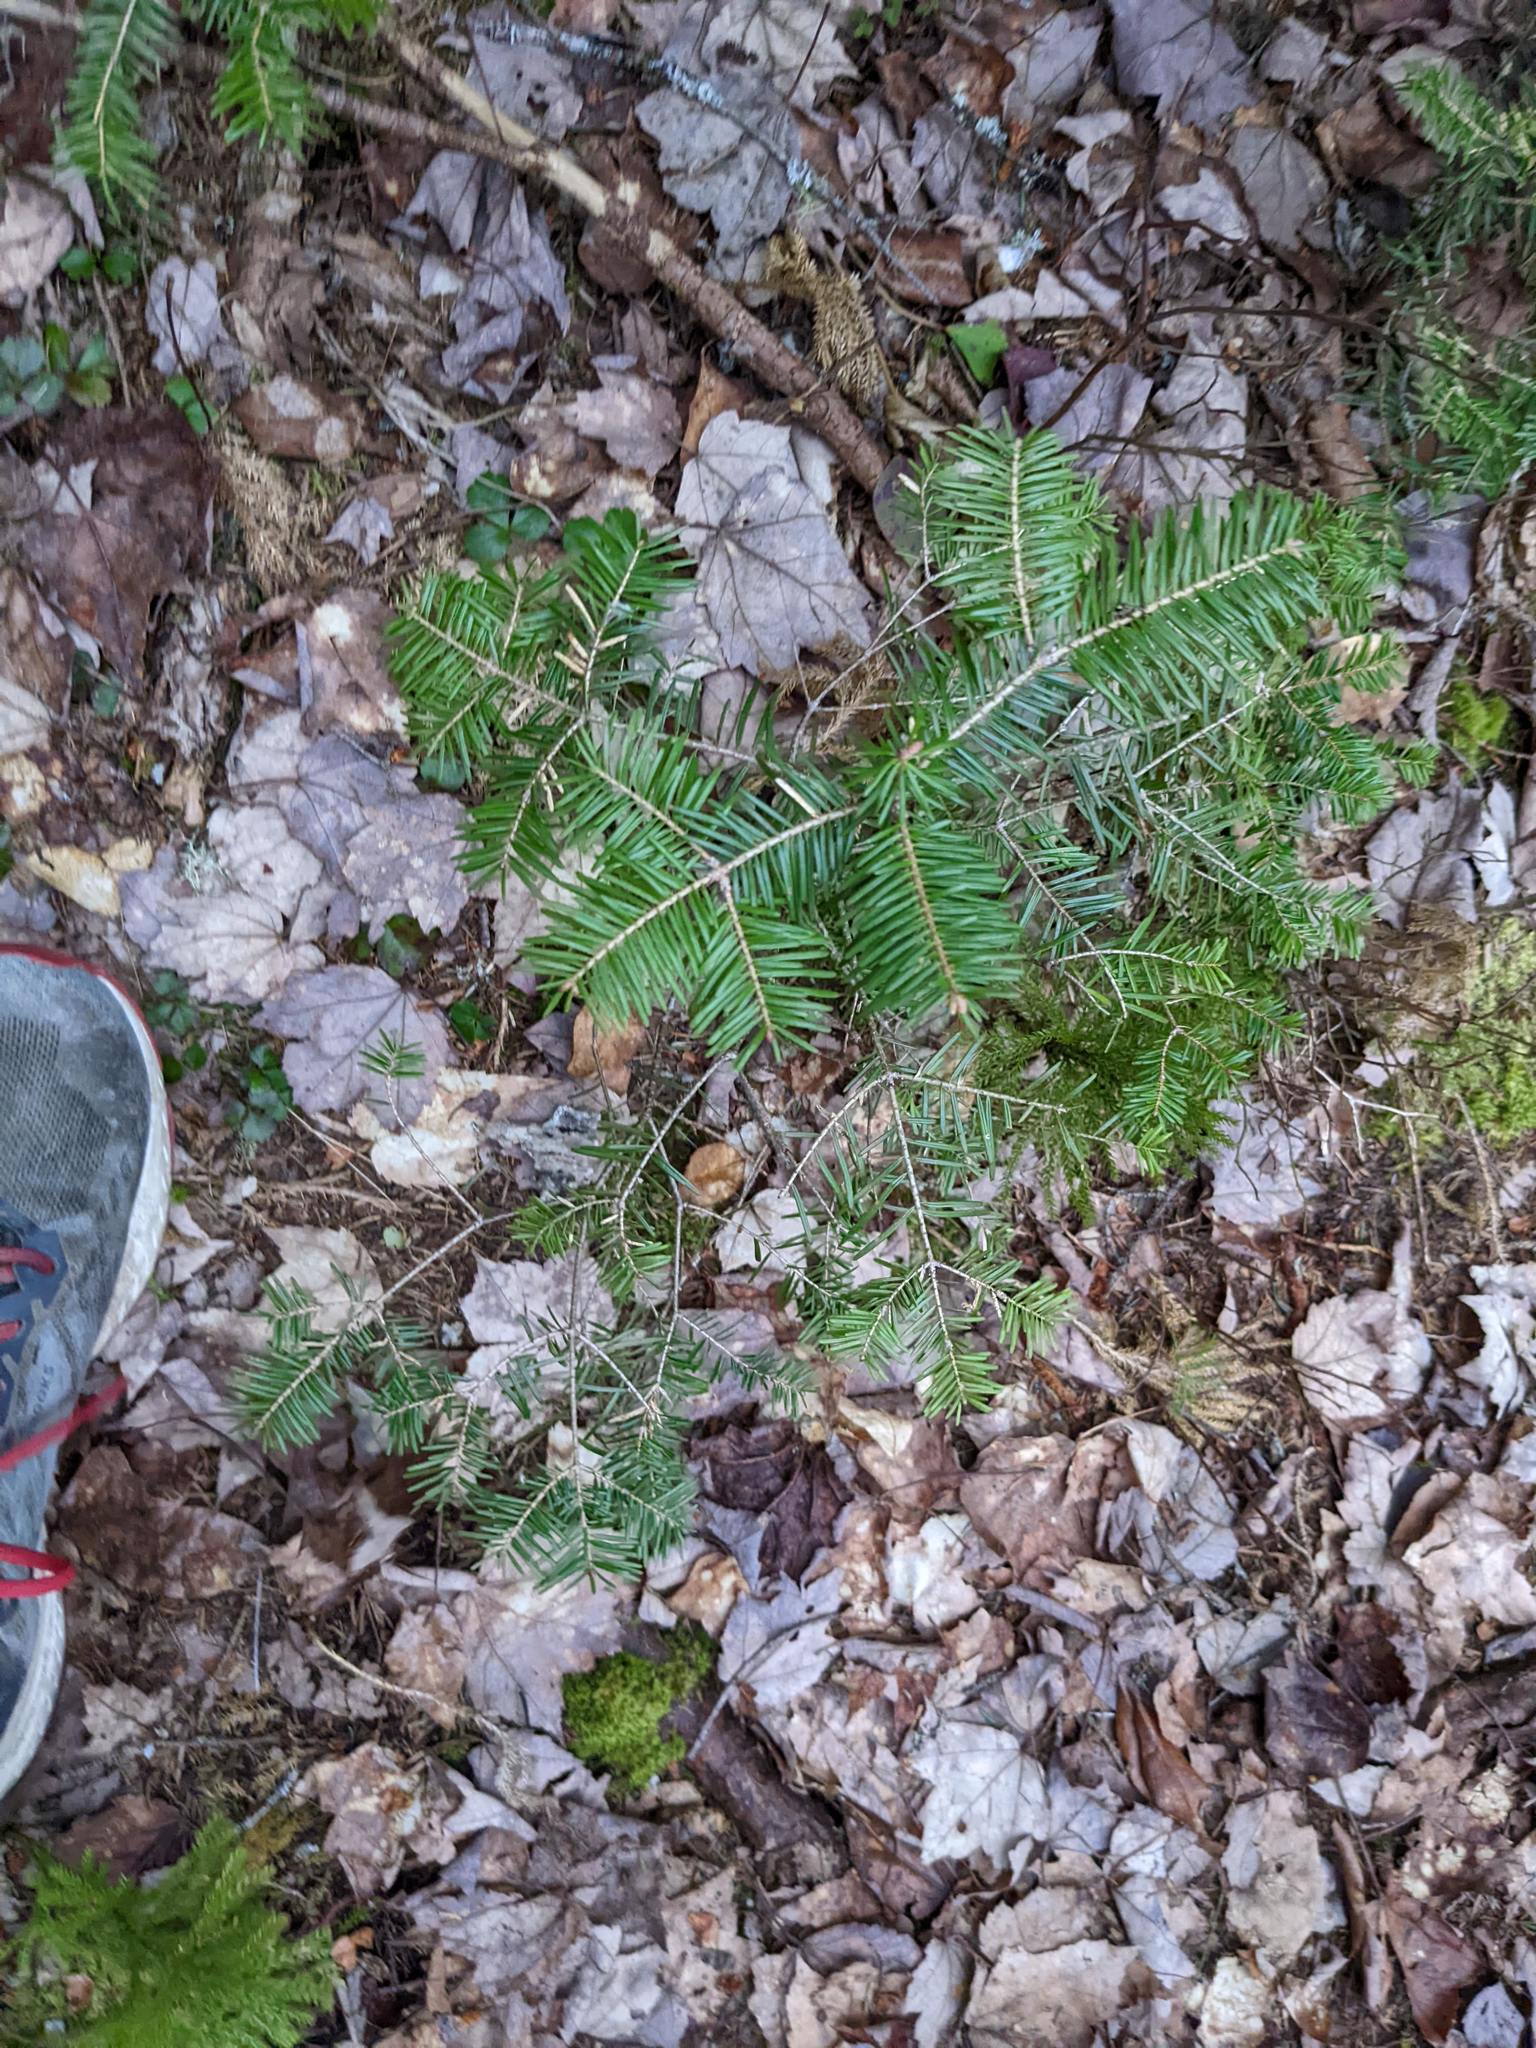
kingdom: Plantae
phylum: Tracheophyta
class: Pinopsida
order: Pinales
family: Pinaceae
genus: Abies
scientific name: Abies balsamea
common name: Balsam fir
